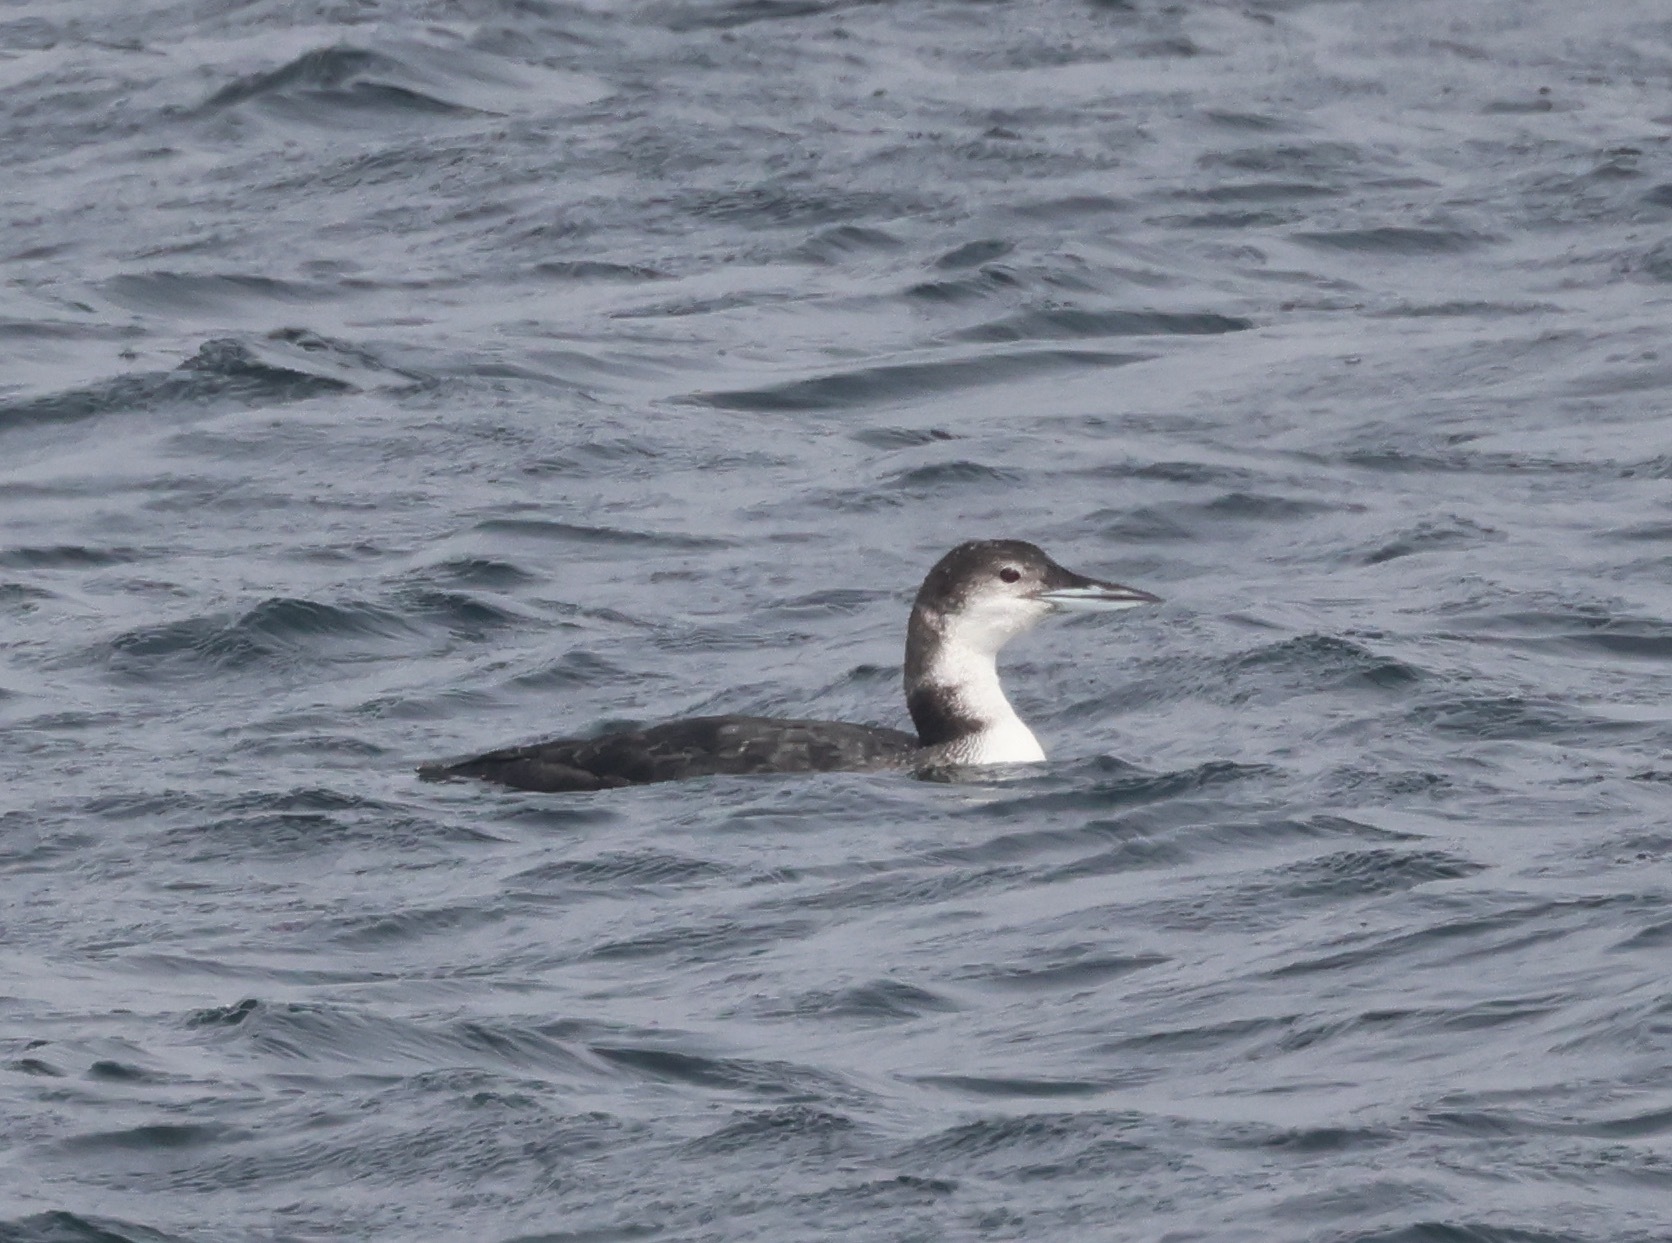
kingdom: Animalia
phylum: Chordata
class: Aves
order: Gaviiformes
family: Gaviidae
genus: Gavia
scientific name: Gavia immer
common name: Common loon
